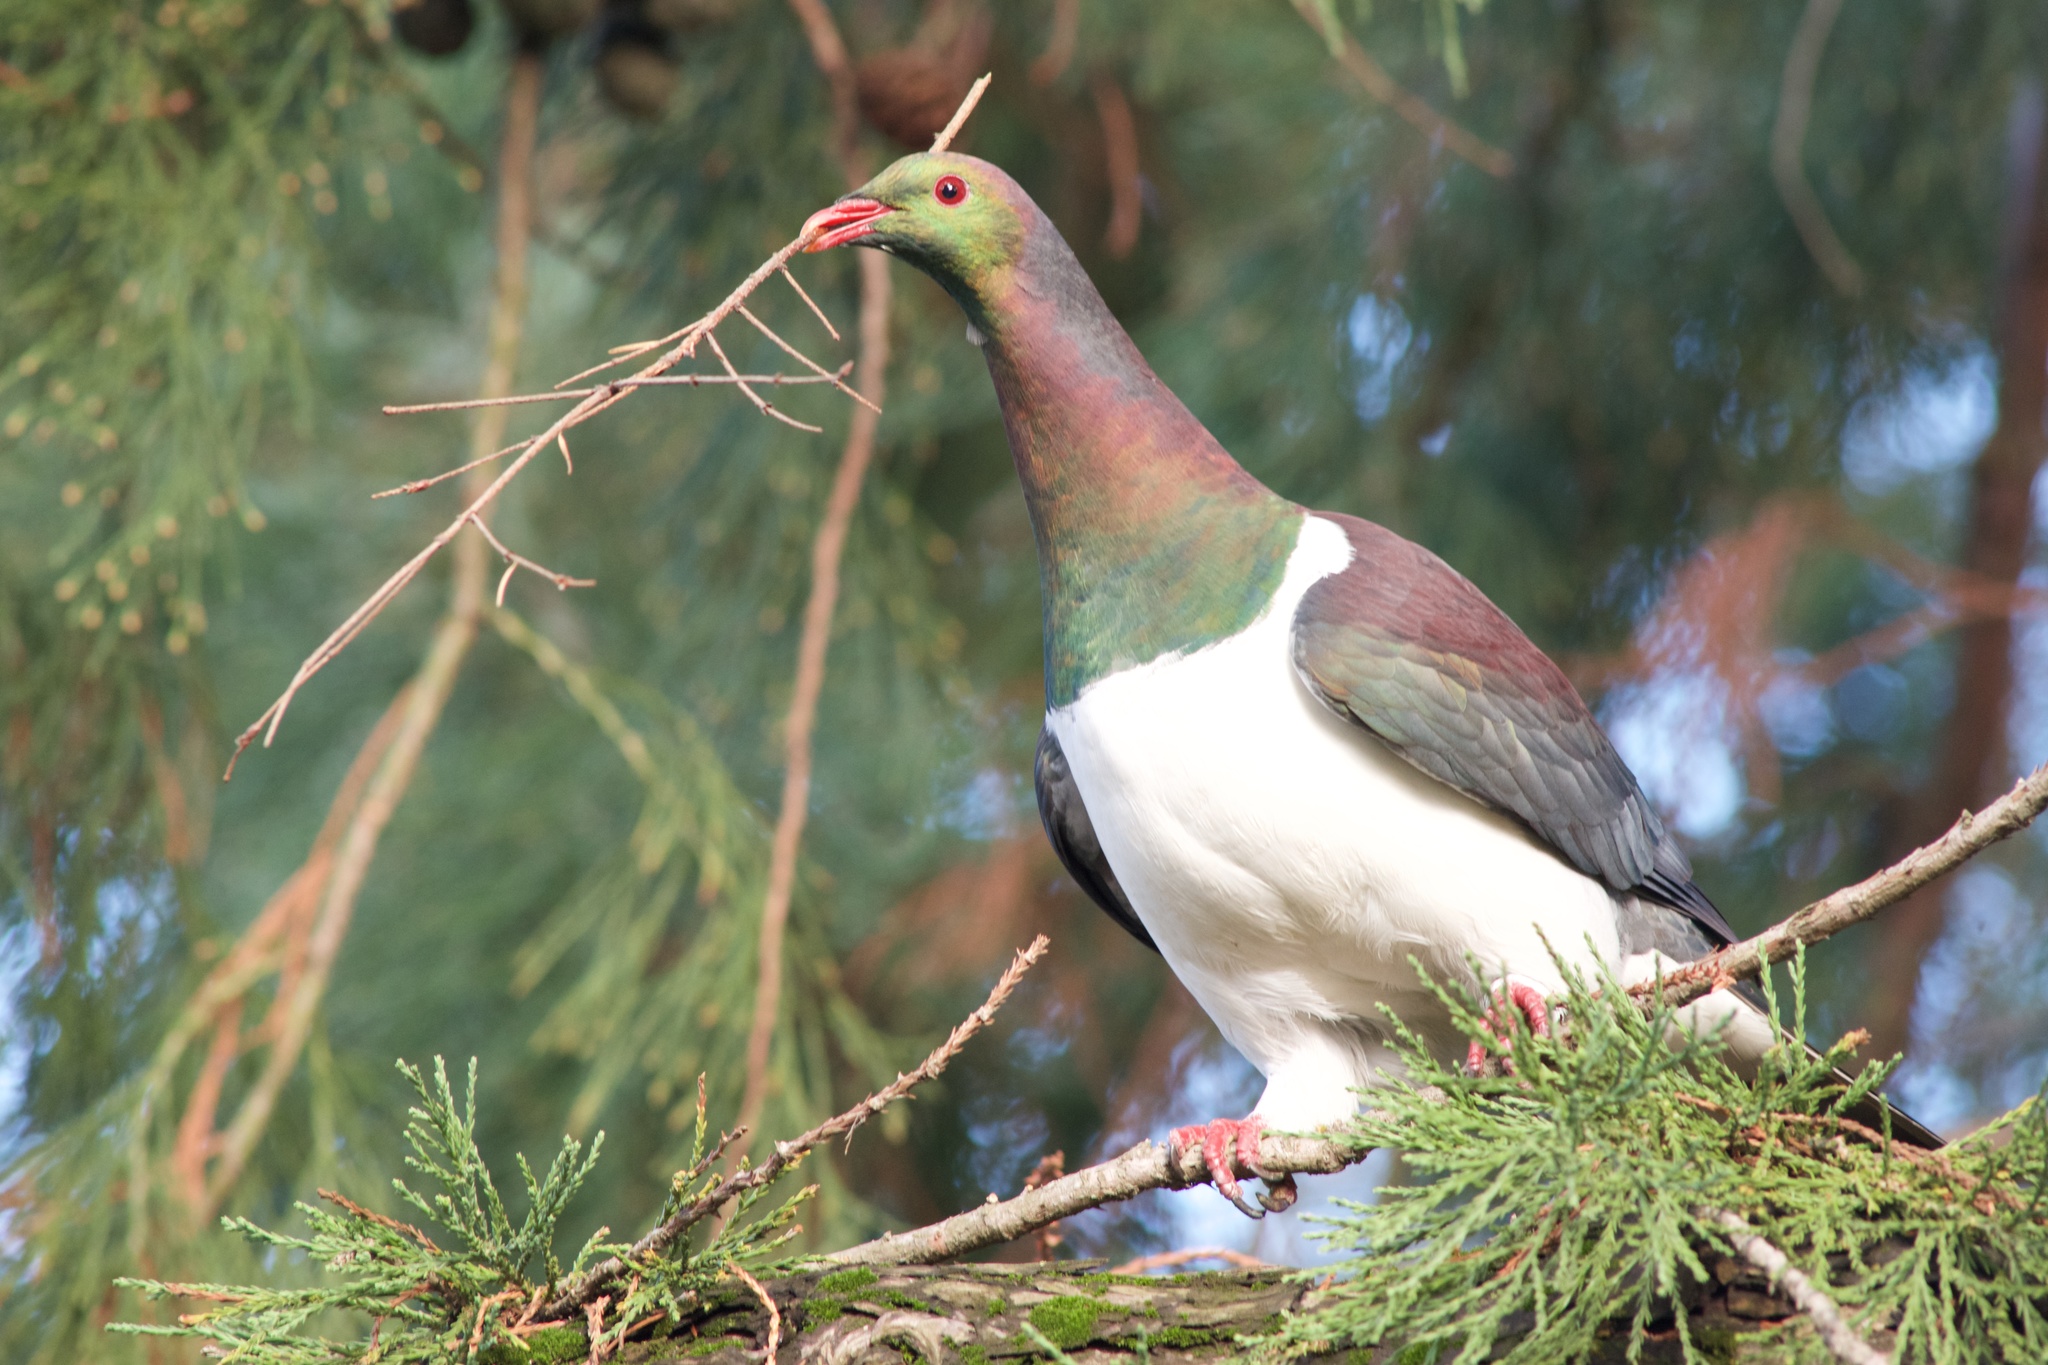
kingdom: Animalia
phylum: Chordata
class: Aves
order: Columbiformes
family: Columbidae
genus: Hemiphaga
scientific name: Hemiphaga novaeseelandiae
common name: New zealand pigeon
